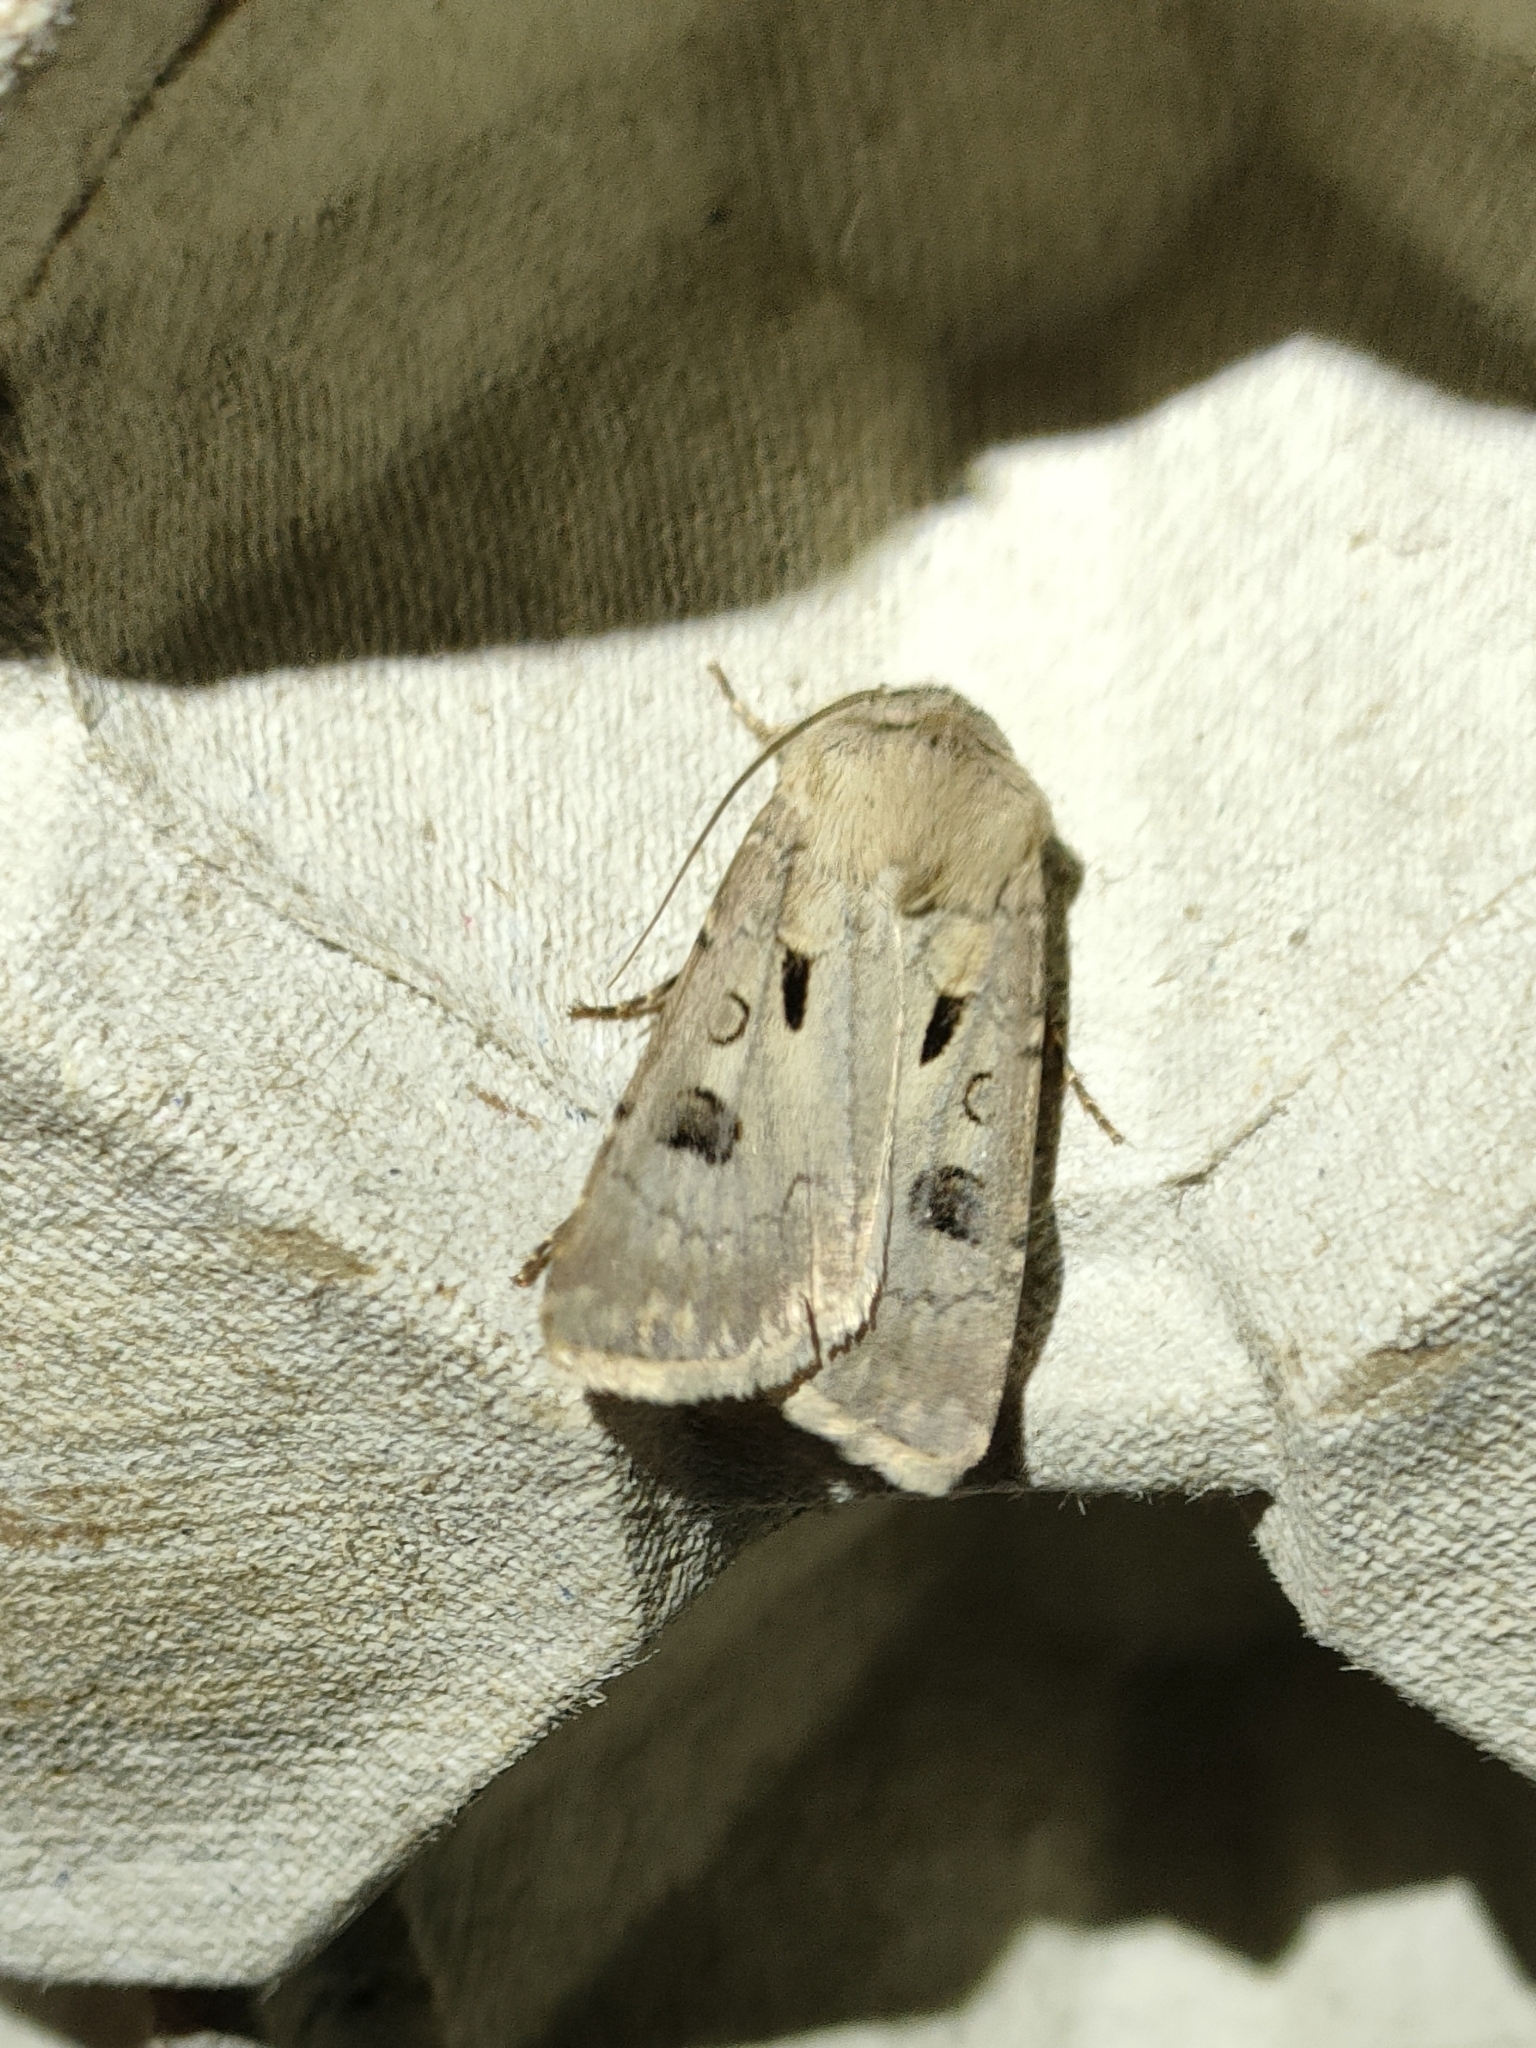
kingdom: Animalia
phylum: Arthropoda
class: Insecta
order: Lepidoptera
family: Noctuidae
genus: Agrotis
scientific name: Agrotis exclamationis
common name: Heart and dart
